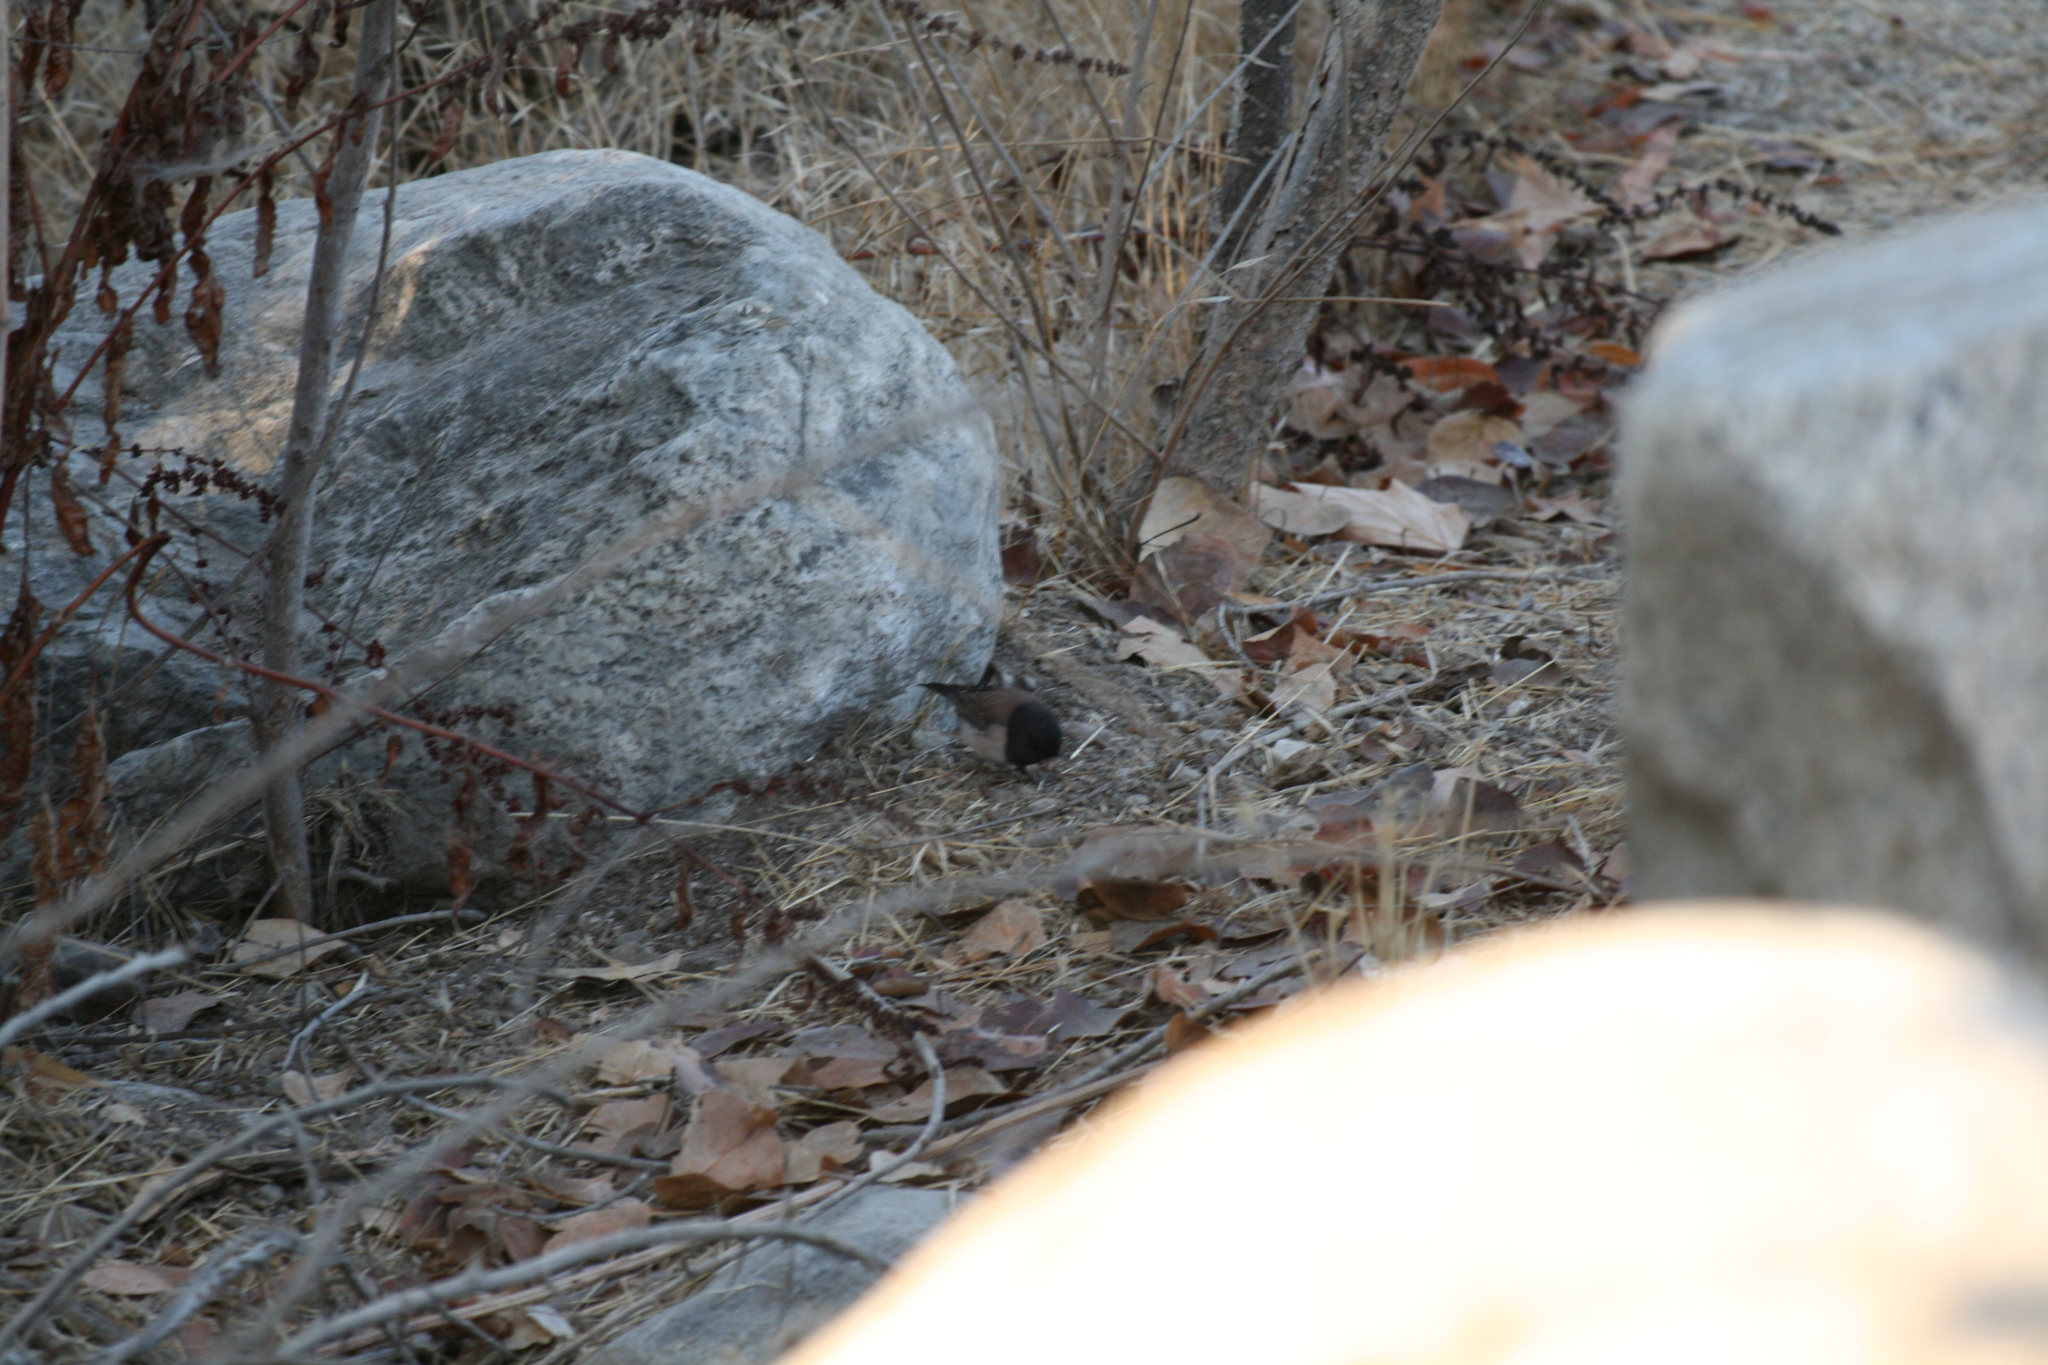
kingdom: Animalia
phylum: Chordata
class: Aves
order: Passeriformes
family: Passerellidae
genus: Junco
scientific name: Junco hyemalis
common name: Dark-eyed junco
